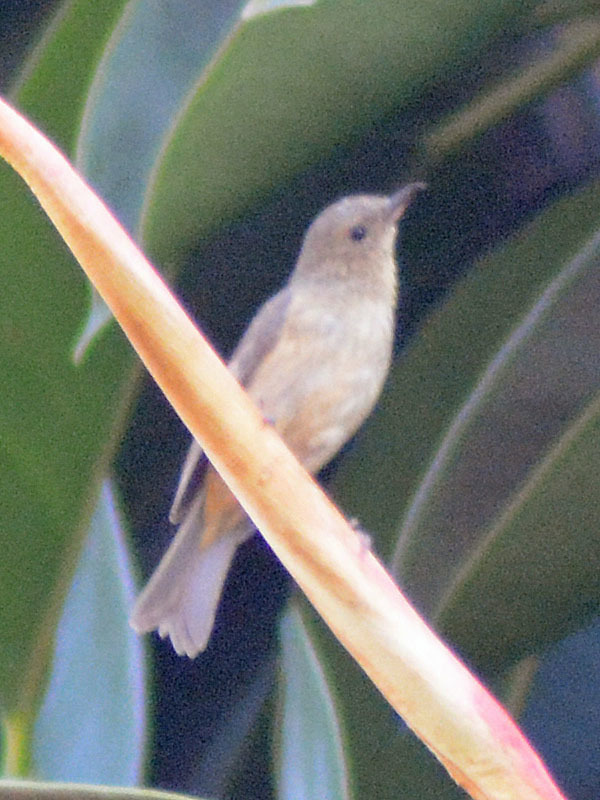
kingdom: Animalia
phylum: Chordata
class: Aves
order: Passeriformes
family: Thraupidae
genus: Diglossa
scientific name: Diglossa baritula
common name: Cinnamon-bellied flowerpiercer
